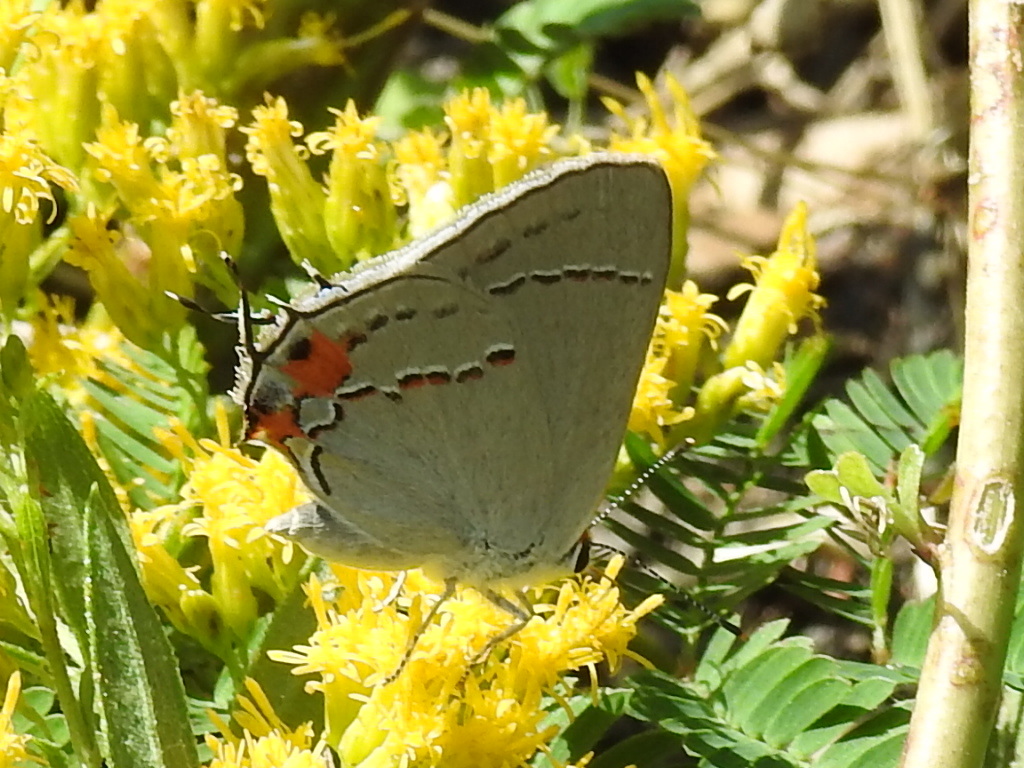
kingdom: Animalia
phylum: Arthropoda
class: Insecta
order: Lepidoptera
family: Lycaenidae
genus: Strymon
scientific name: Strymon melinus
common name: Gray hairstreak
